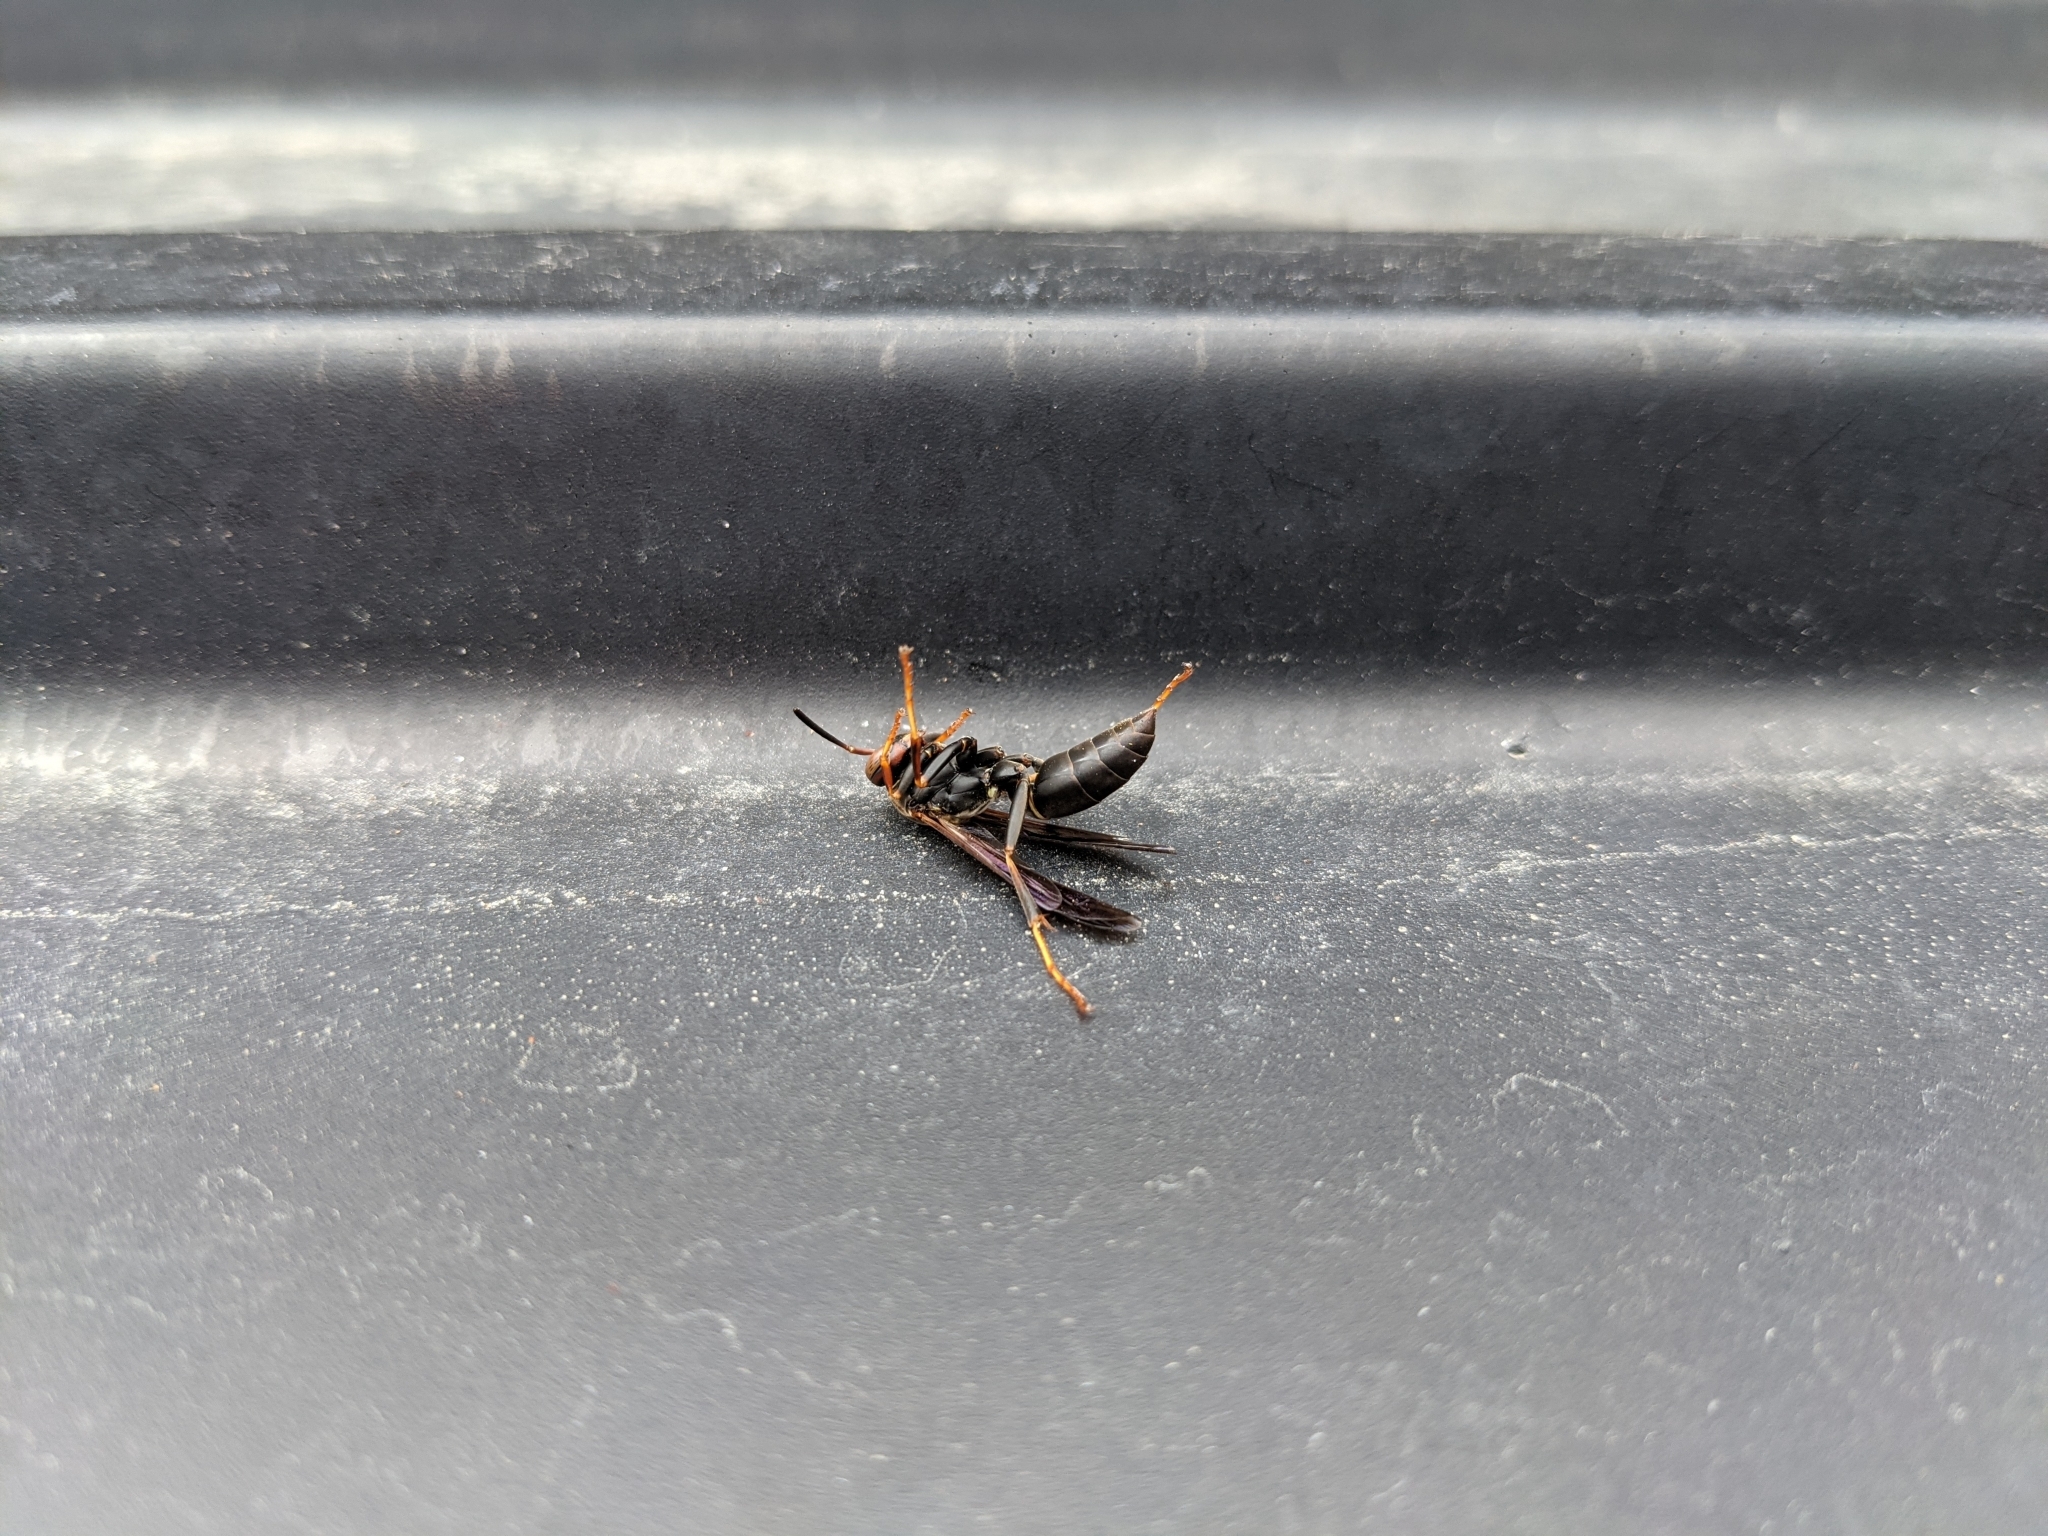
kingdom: Animalia
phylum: Arthropoda
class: Insecta
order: Hymenoptera
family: Eumenidae
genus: Polistes
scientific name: Polistes fuscatus
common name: Dark paper wasp
